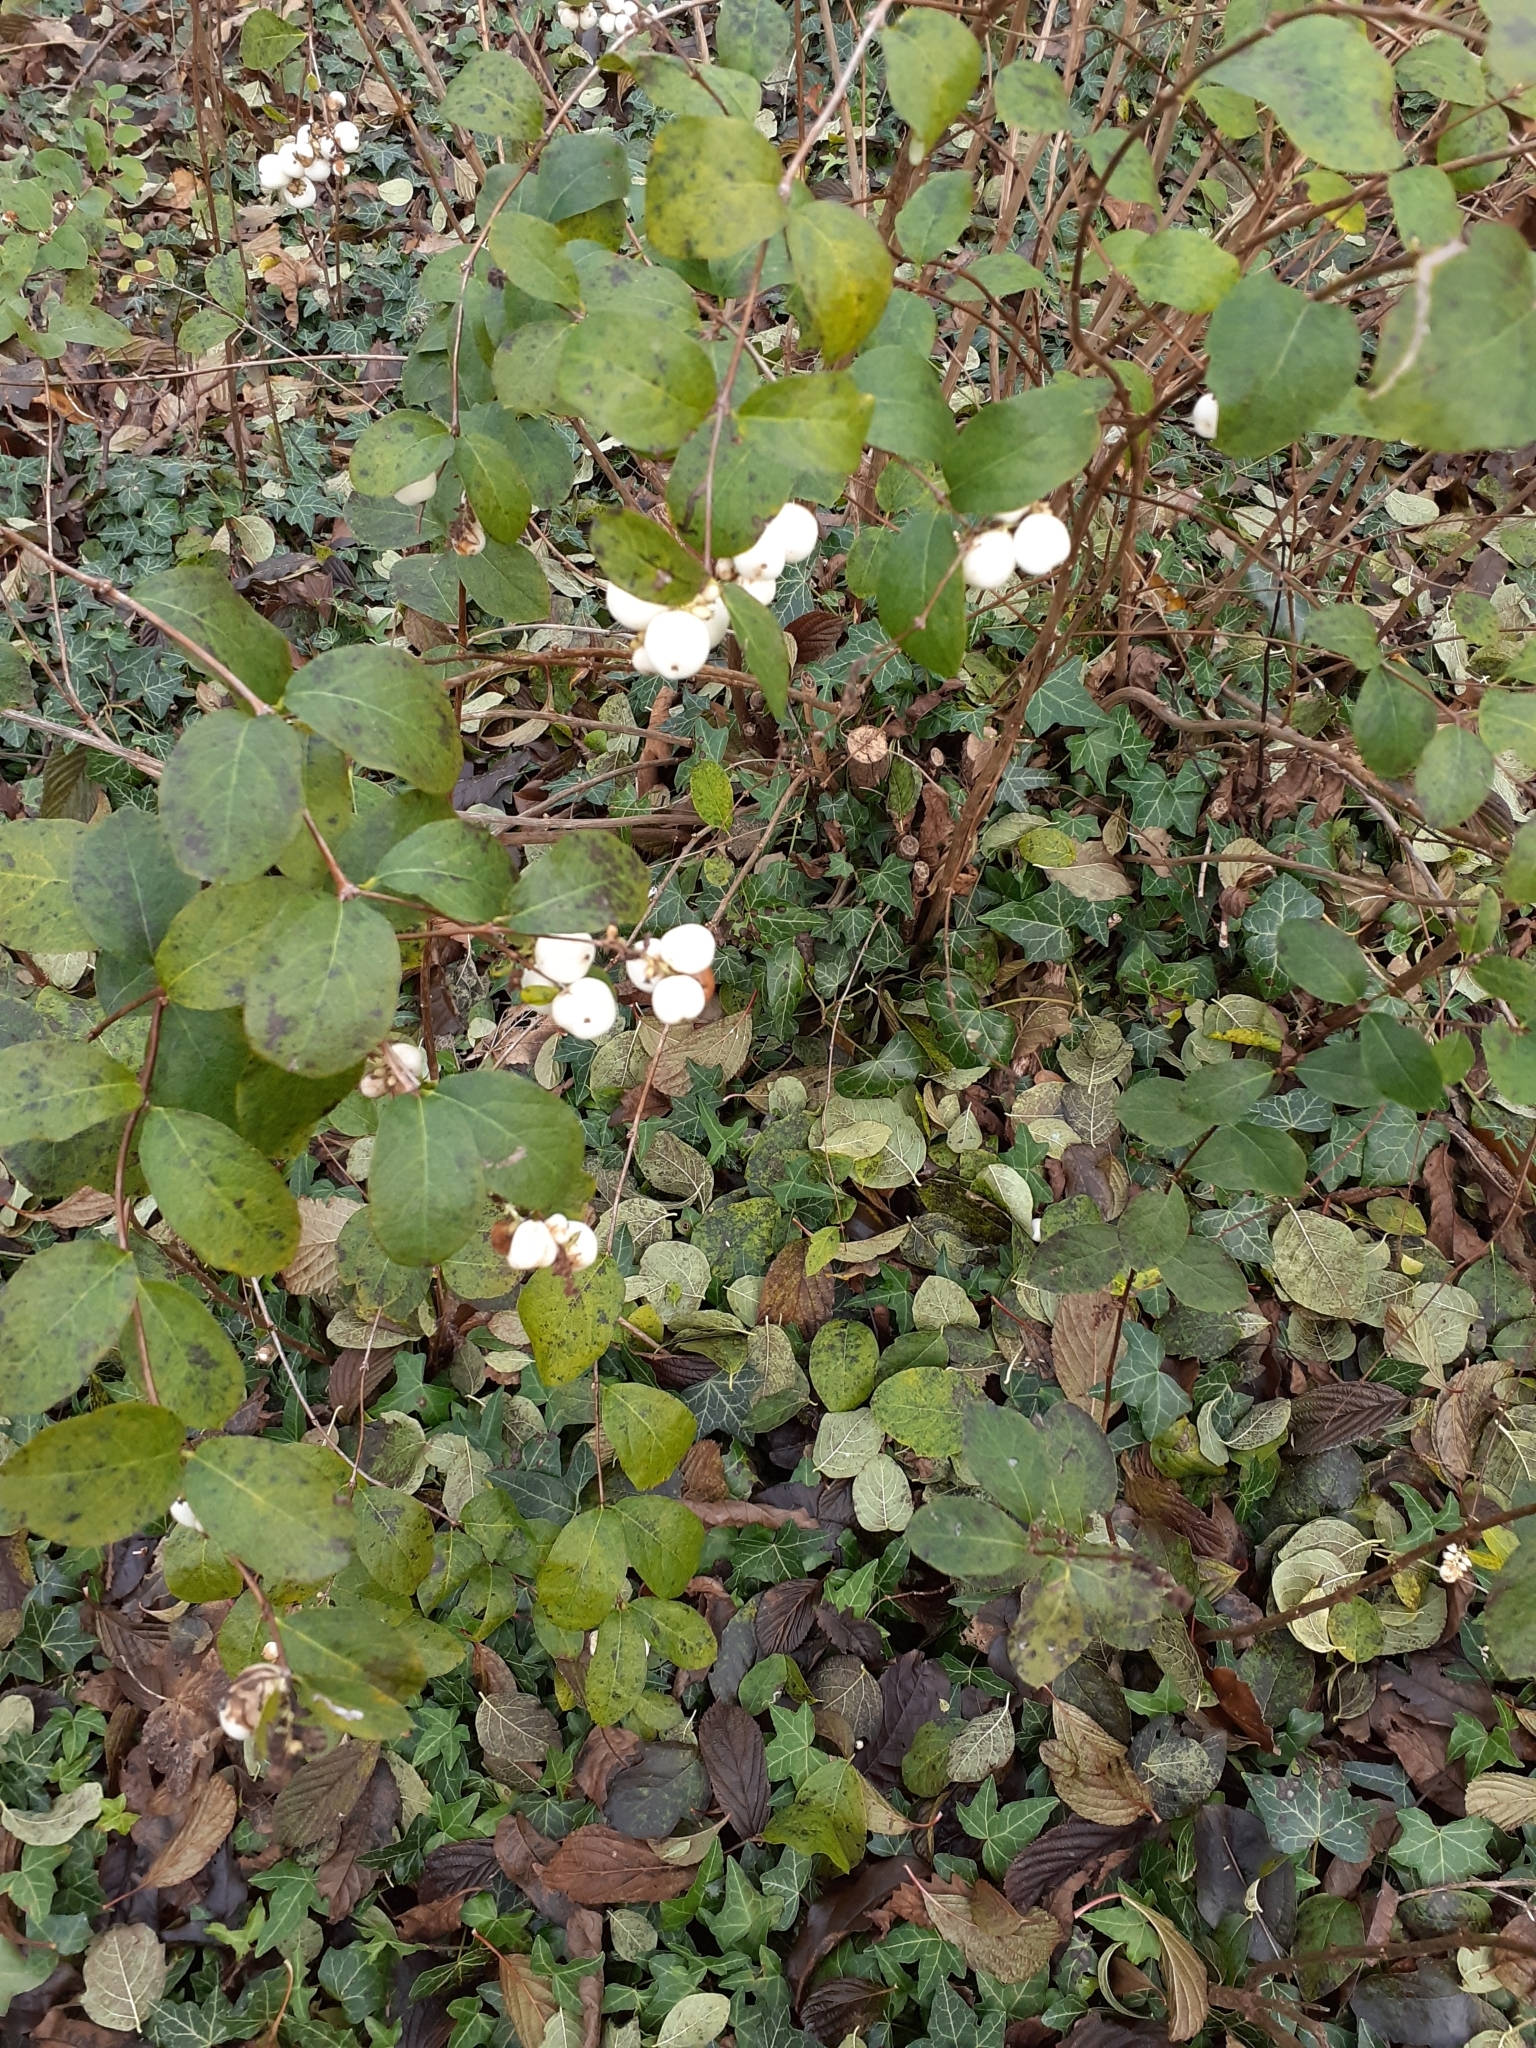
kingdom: Plantae
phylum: Tracheophyta
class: Magnoliopsida
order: Dipsacales
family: Caprifoliaceae
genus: Symphoricarpos
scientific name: Symphoricarpos albus
